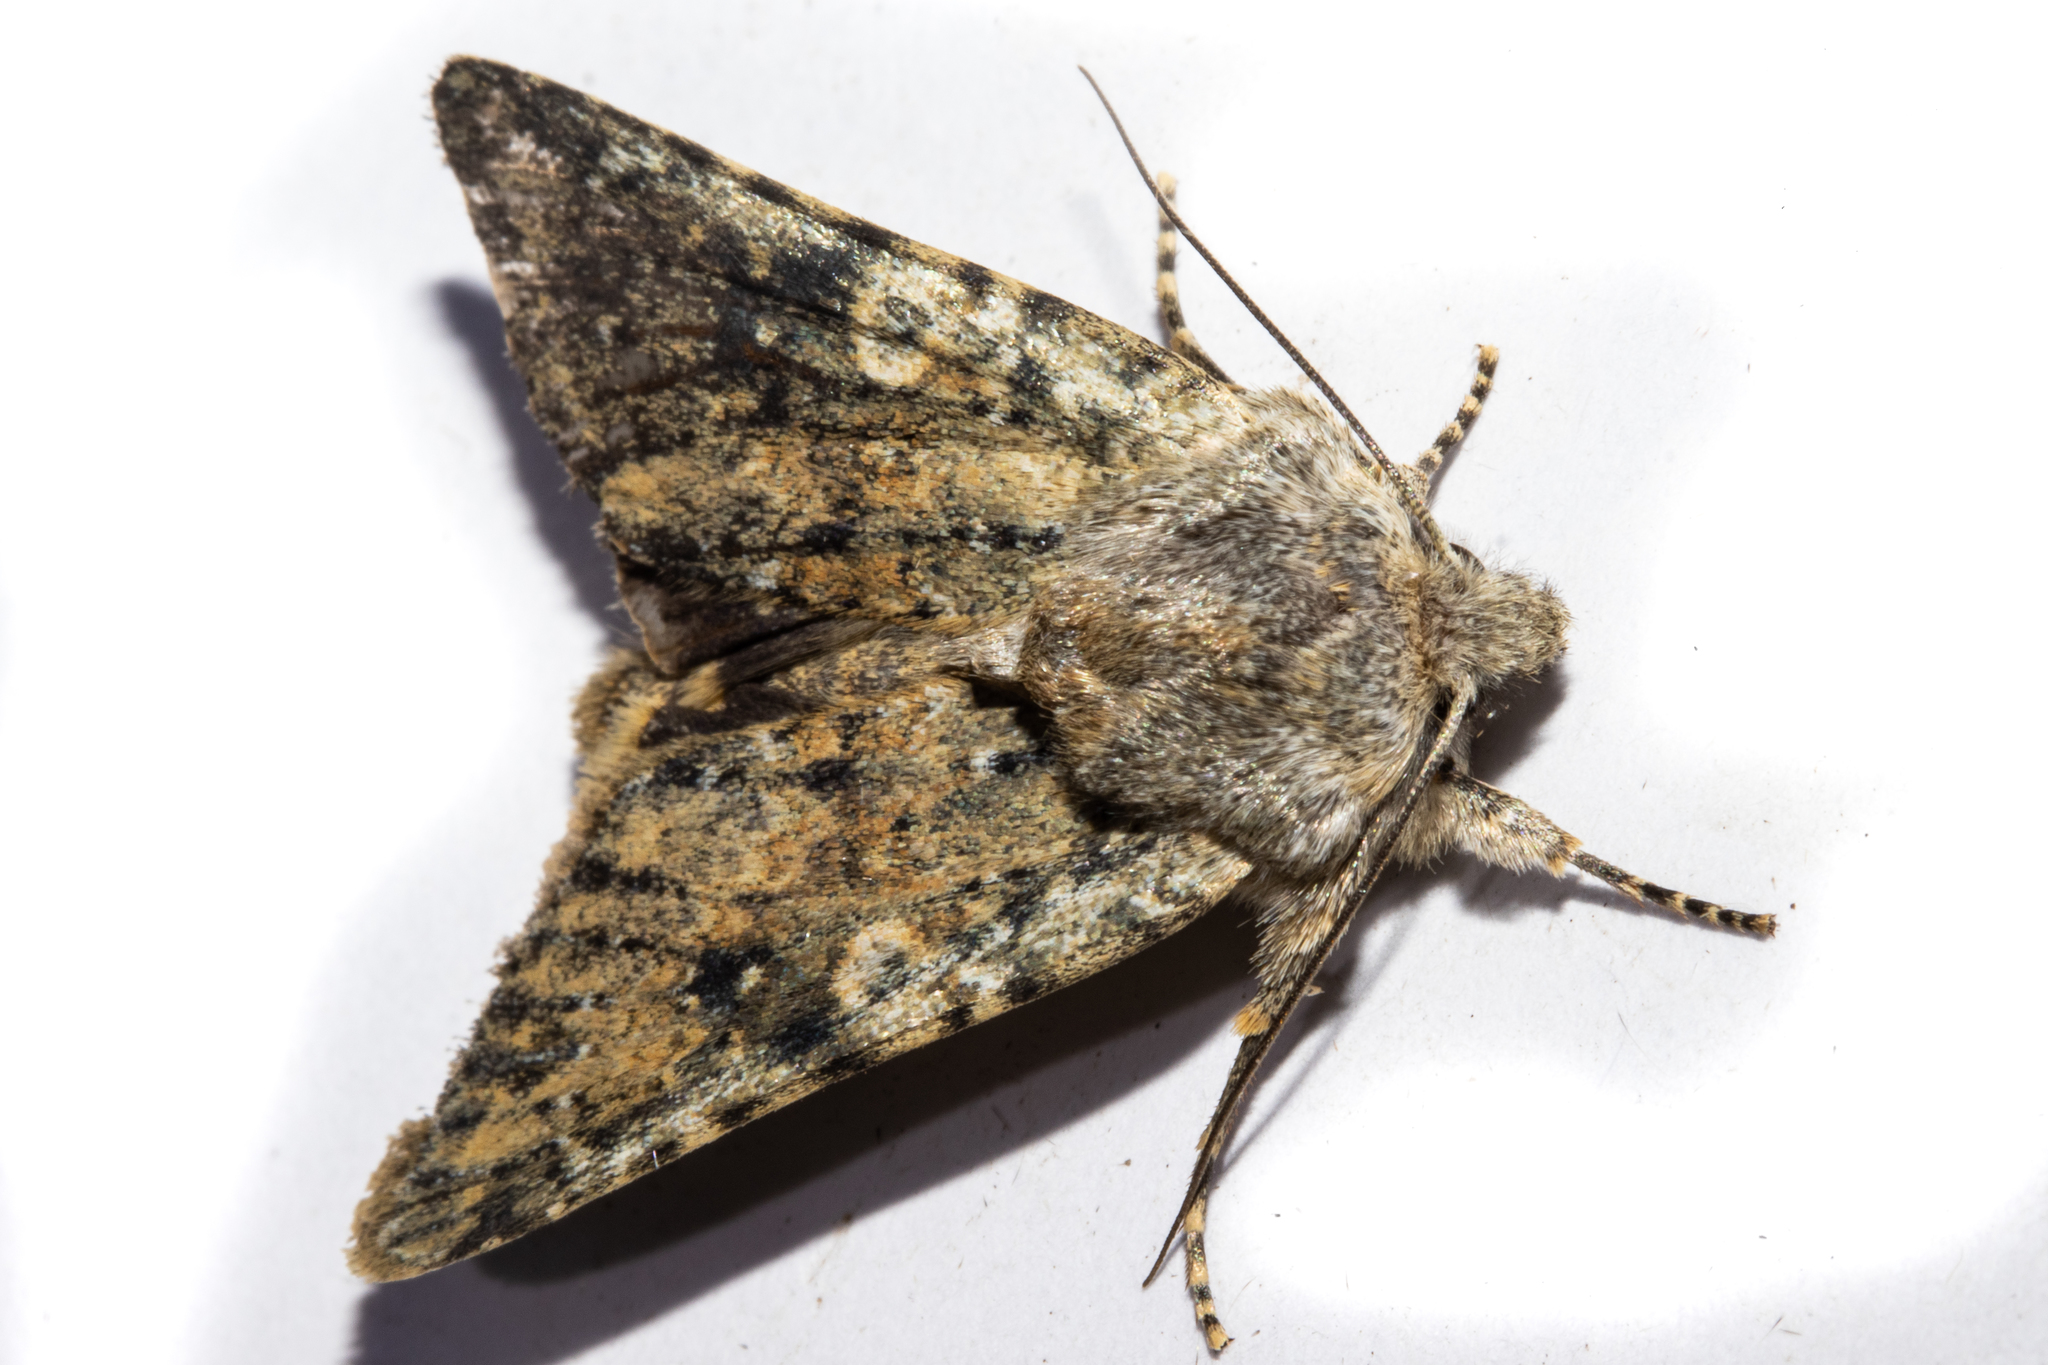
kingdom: Animalia
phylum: Arthropoda
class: Insecta
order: Lepidoptera
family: Noctuidae
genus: Ichneutica
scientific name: Ichneutica cuneata
